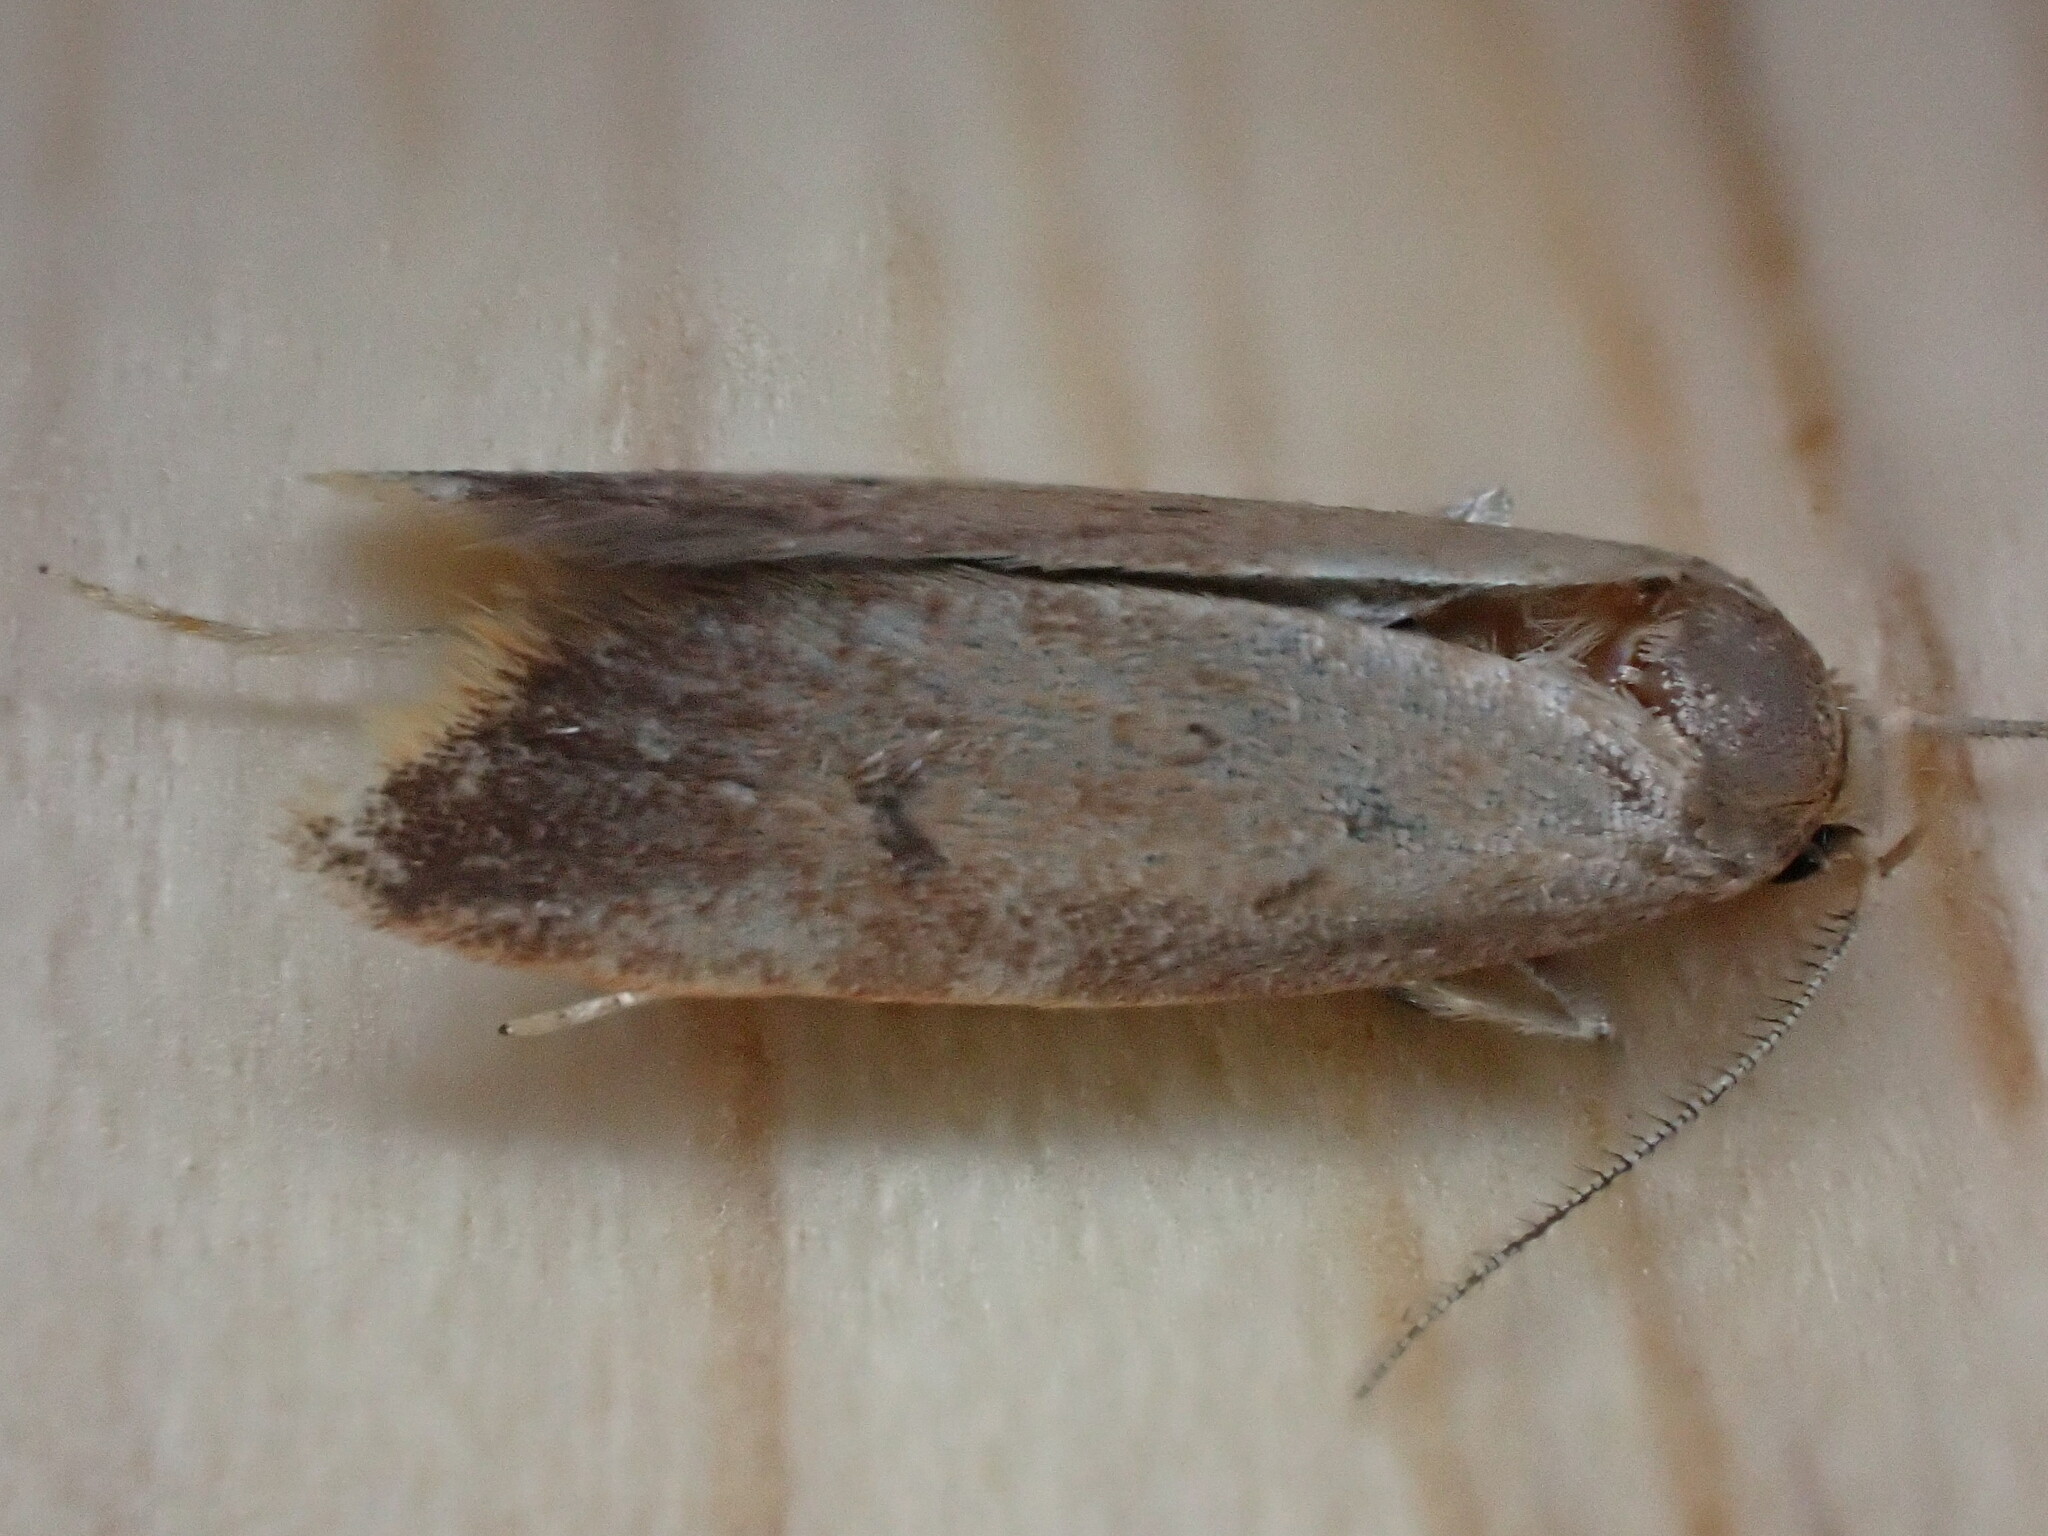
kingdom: Animalia
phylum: Arthropoda
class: Insecta
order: Lepidoptera
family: Oecophoridae
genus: Tachystola
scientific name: Tachystola acroxantha
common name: Ruddy streak
